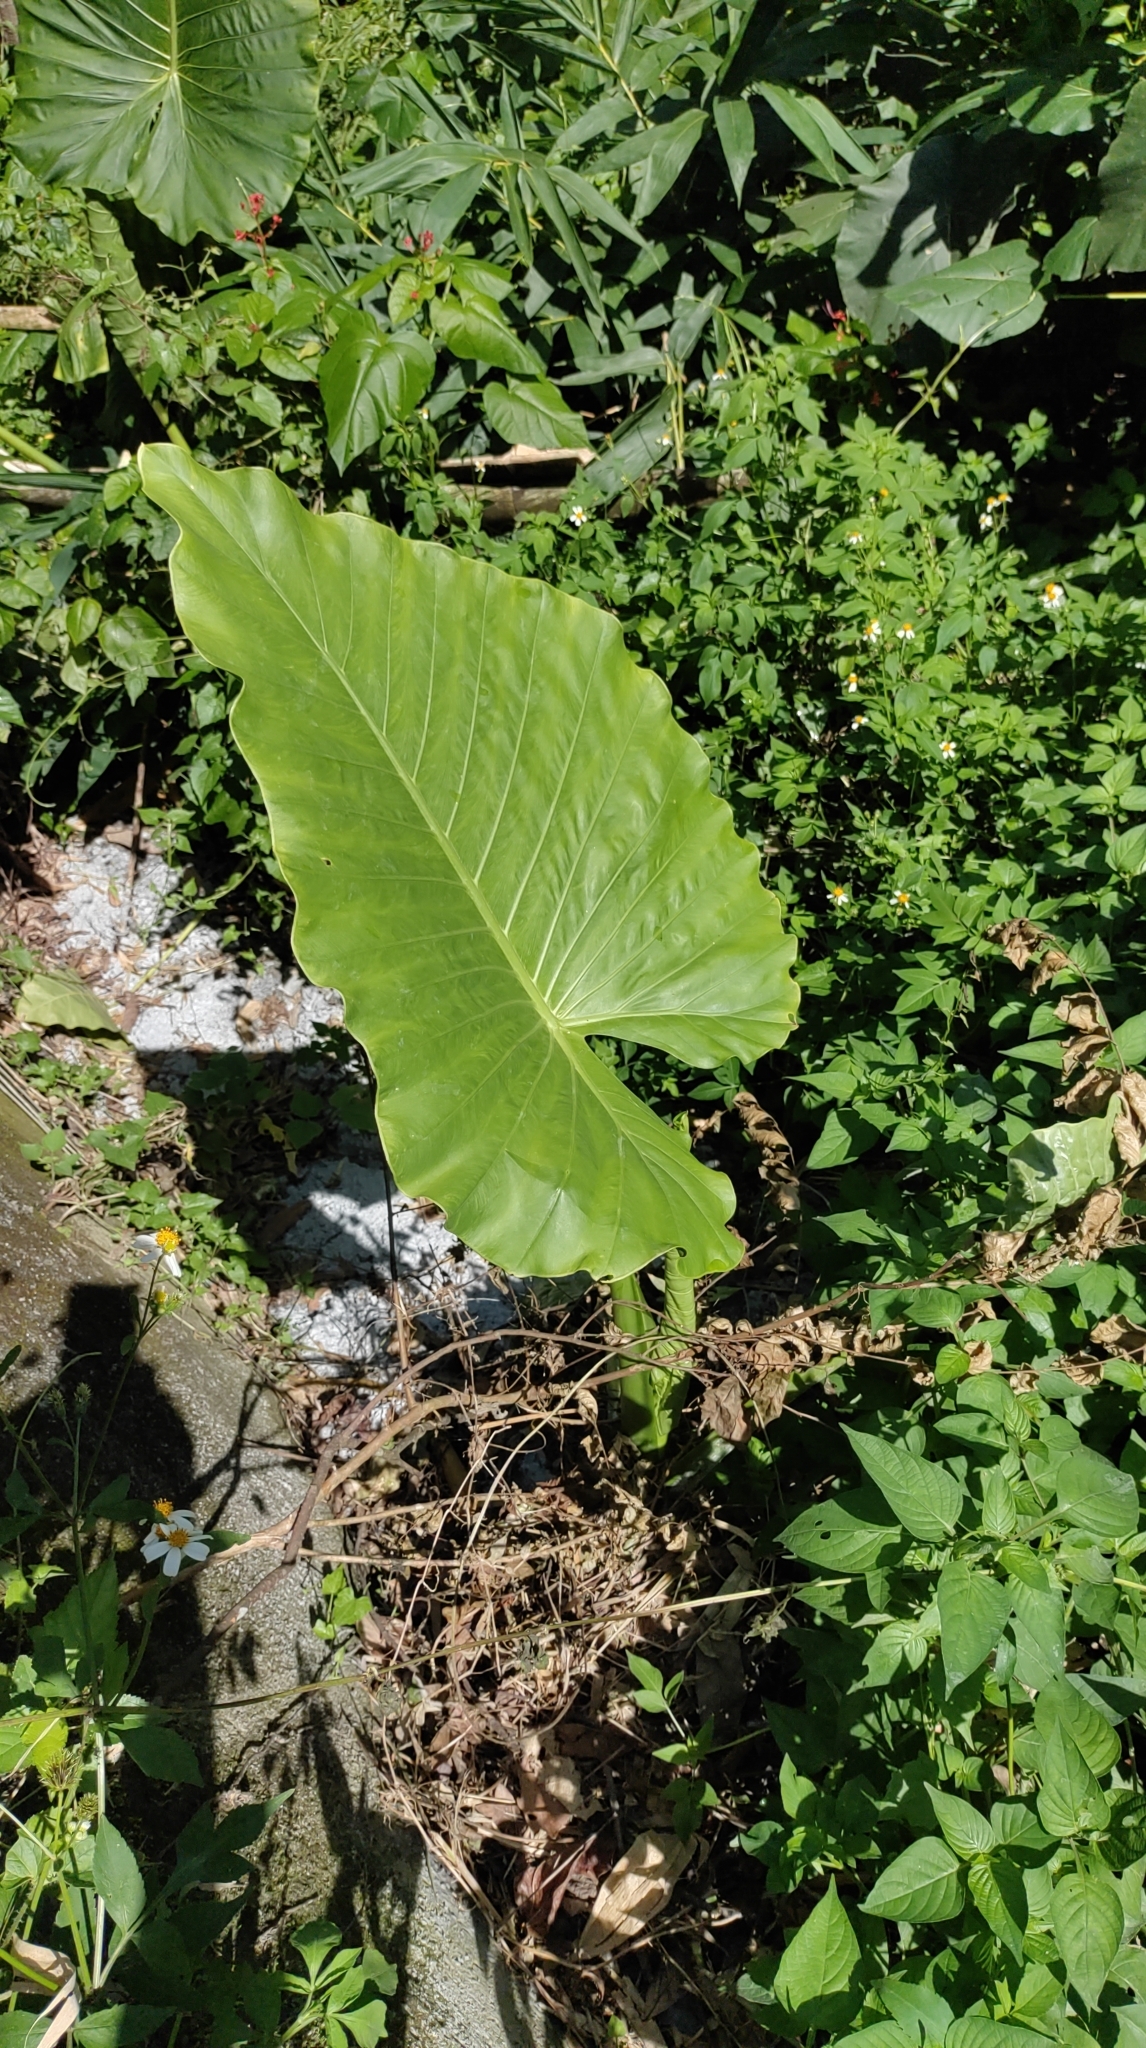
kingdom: Plantae
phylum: Tracheophyta
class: Liliopsida
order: Alismatales
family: Araceae
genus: Alocasia
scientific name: Alocasia odora
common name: Asian taro
